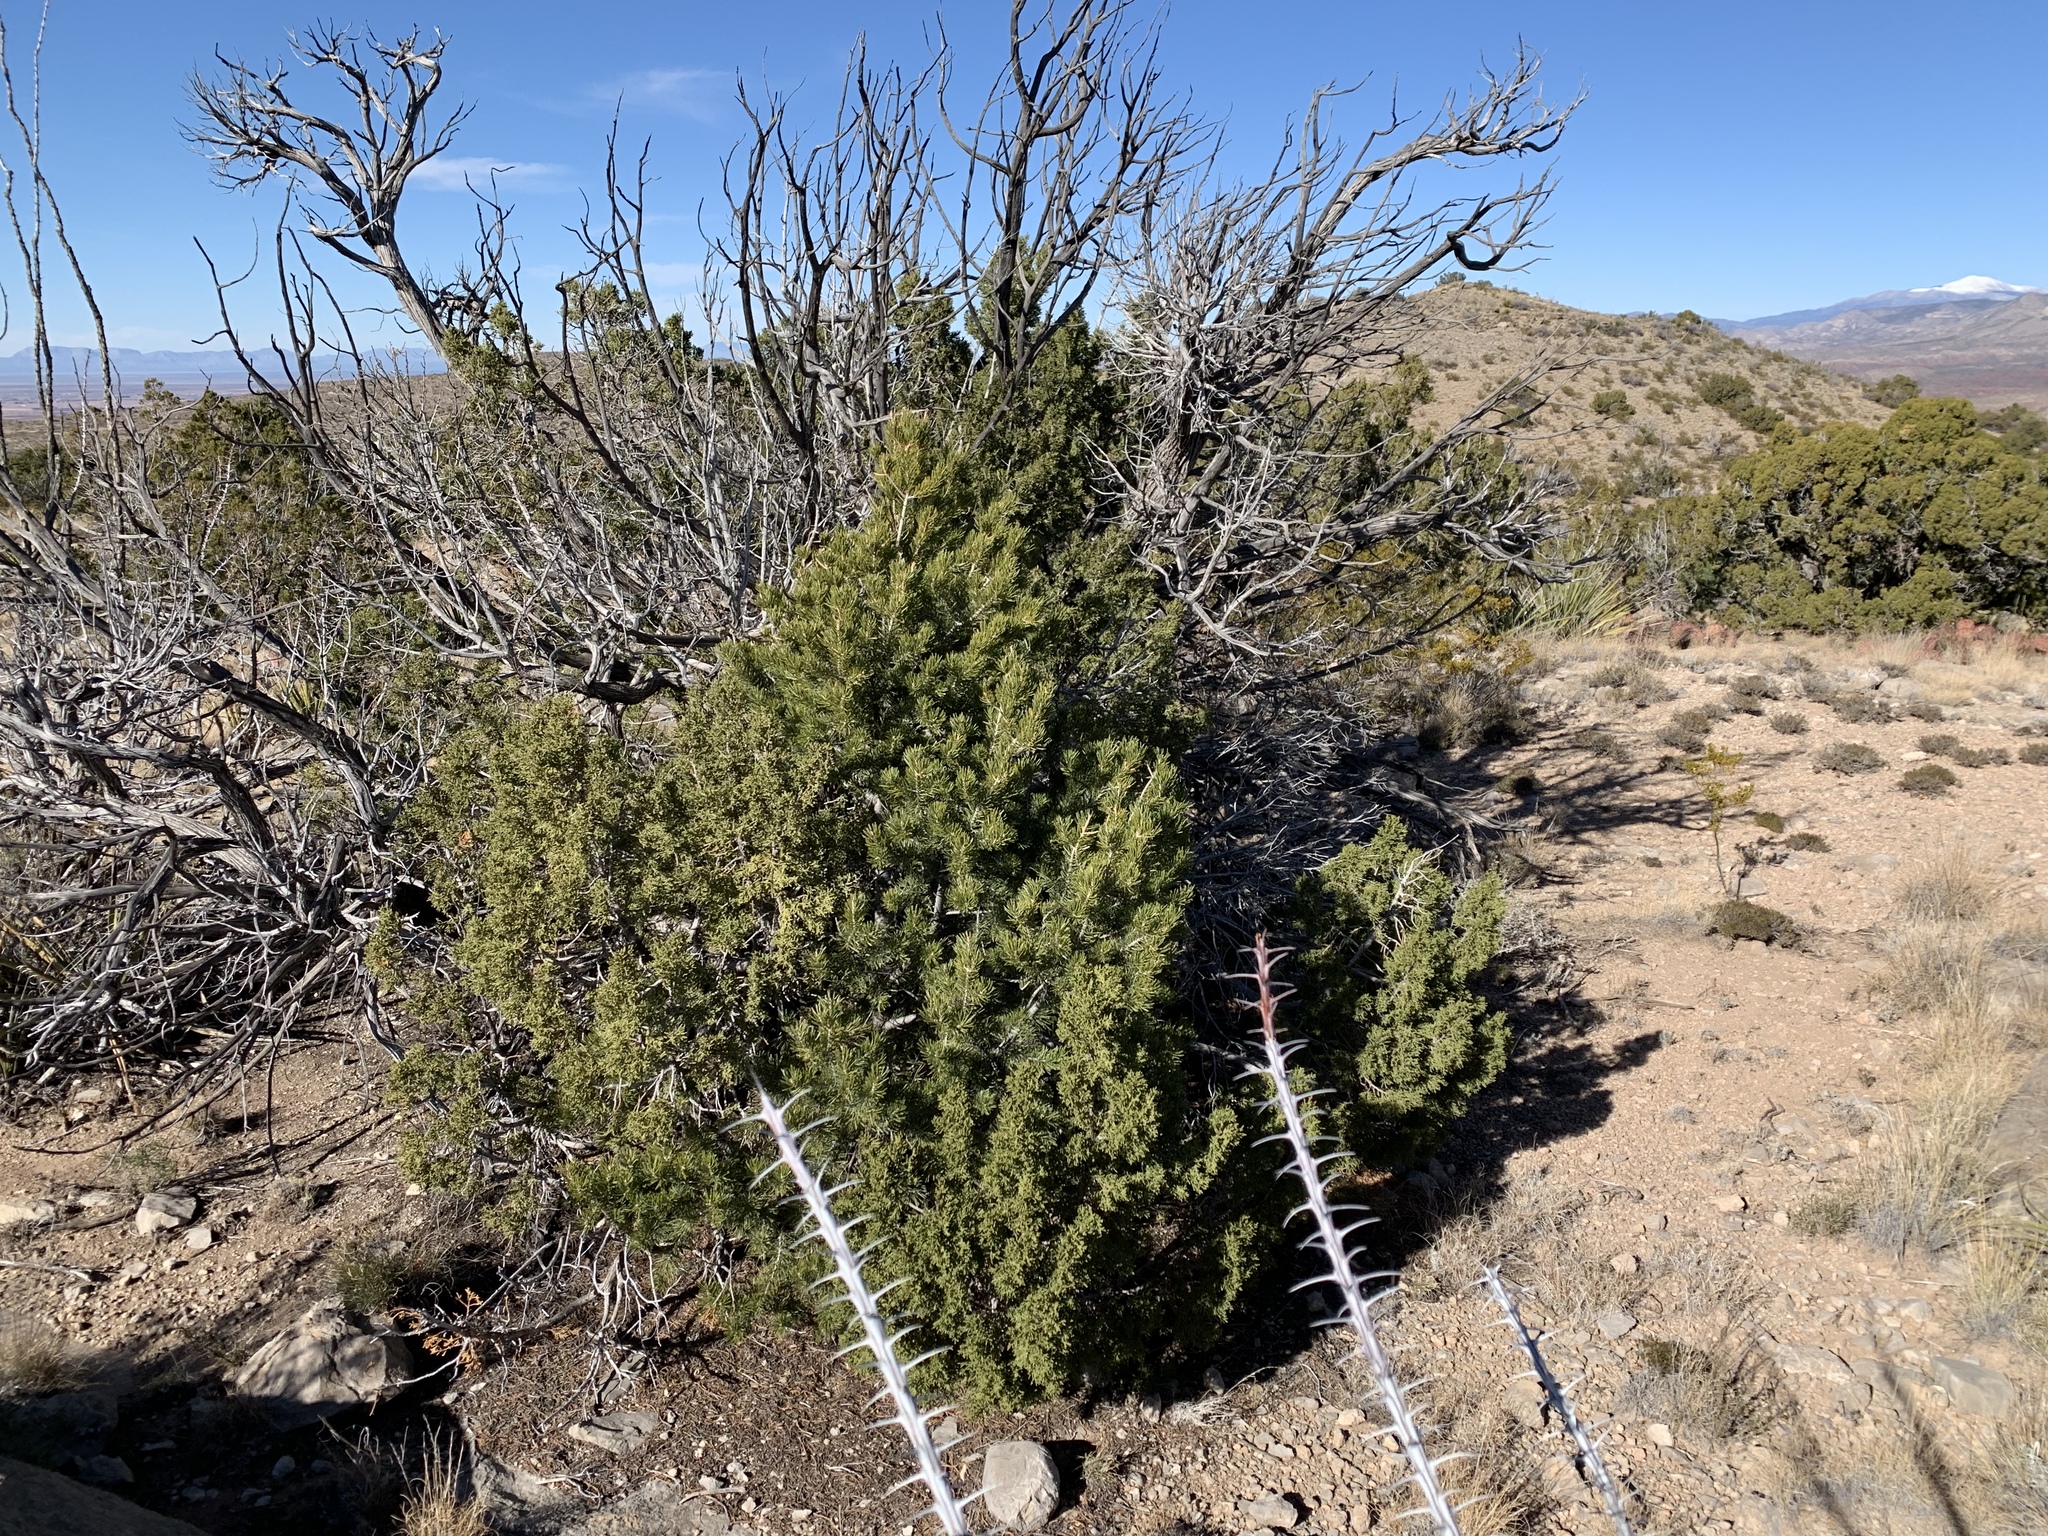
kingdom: Plantae
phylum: Tracheophyta
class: Pinopsida
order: Pinales
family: Pinaceae
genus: Pinus
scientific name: Pinus edulis
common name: Colorado pinyon
